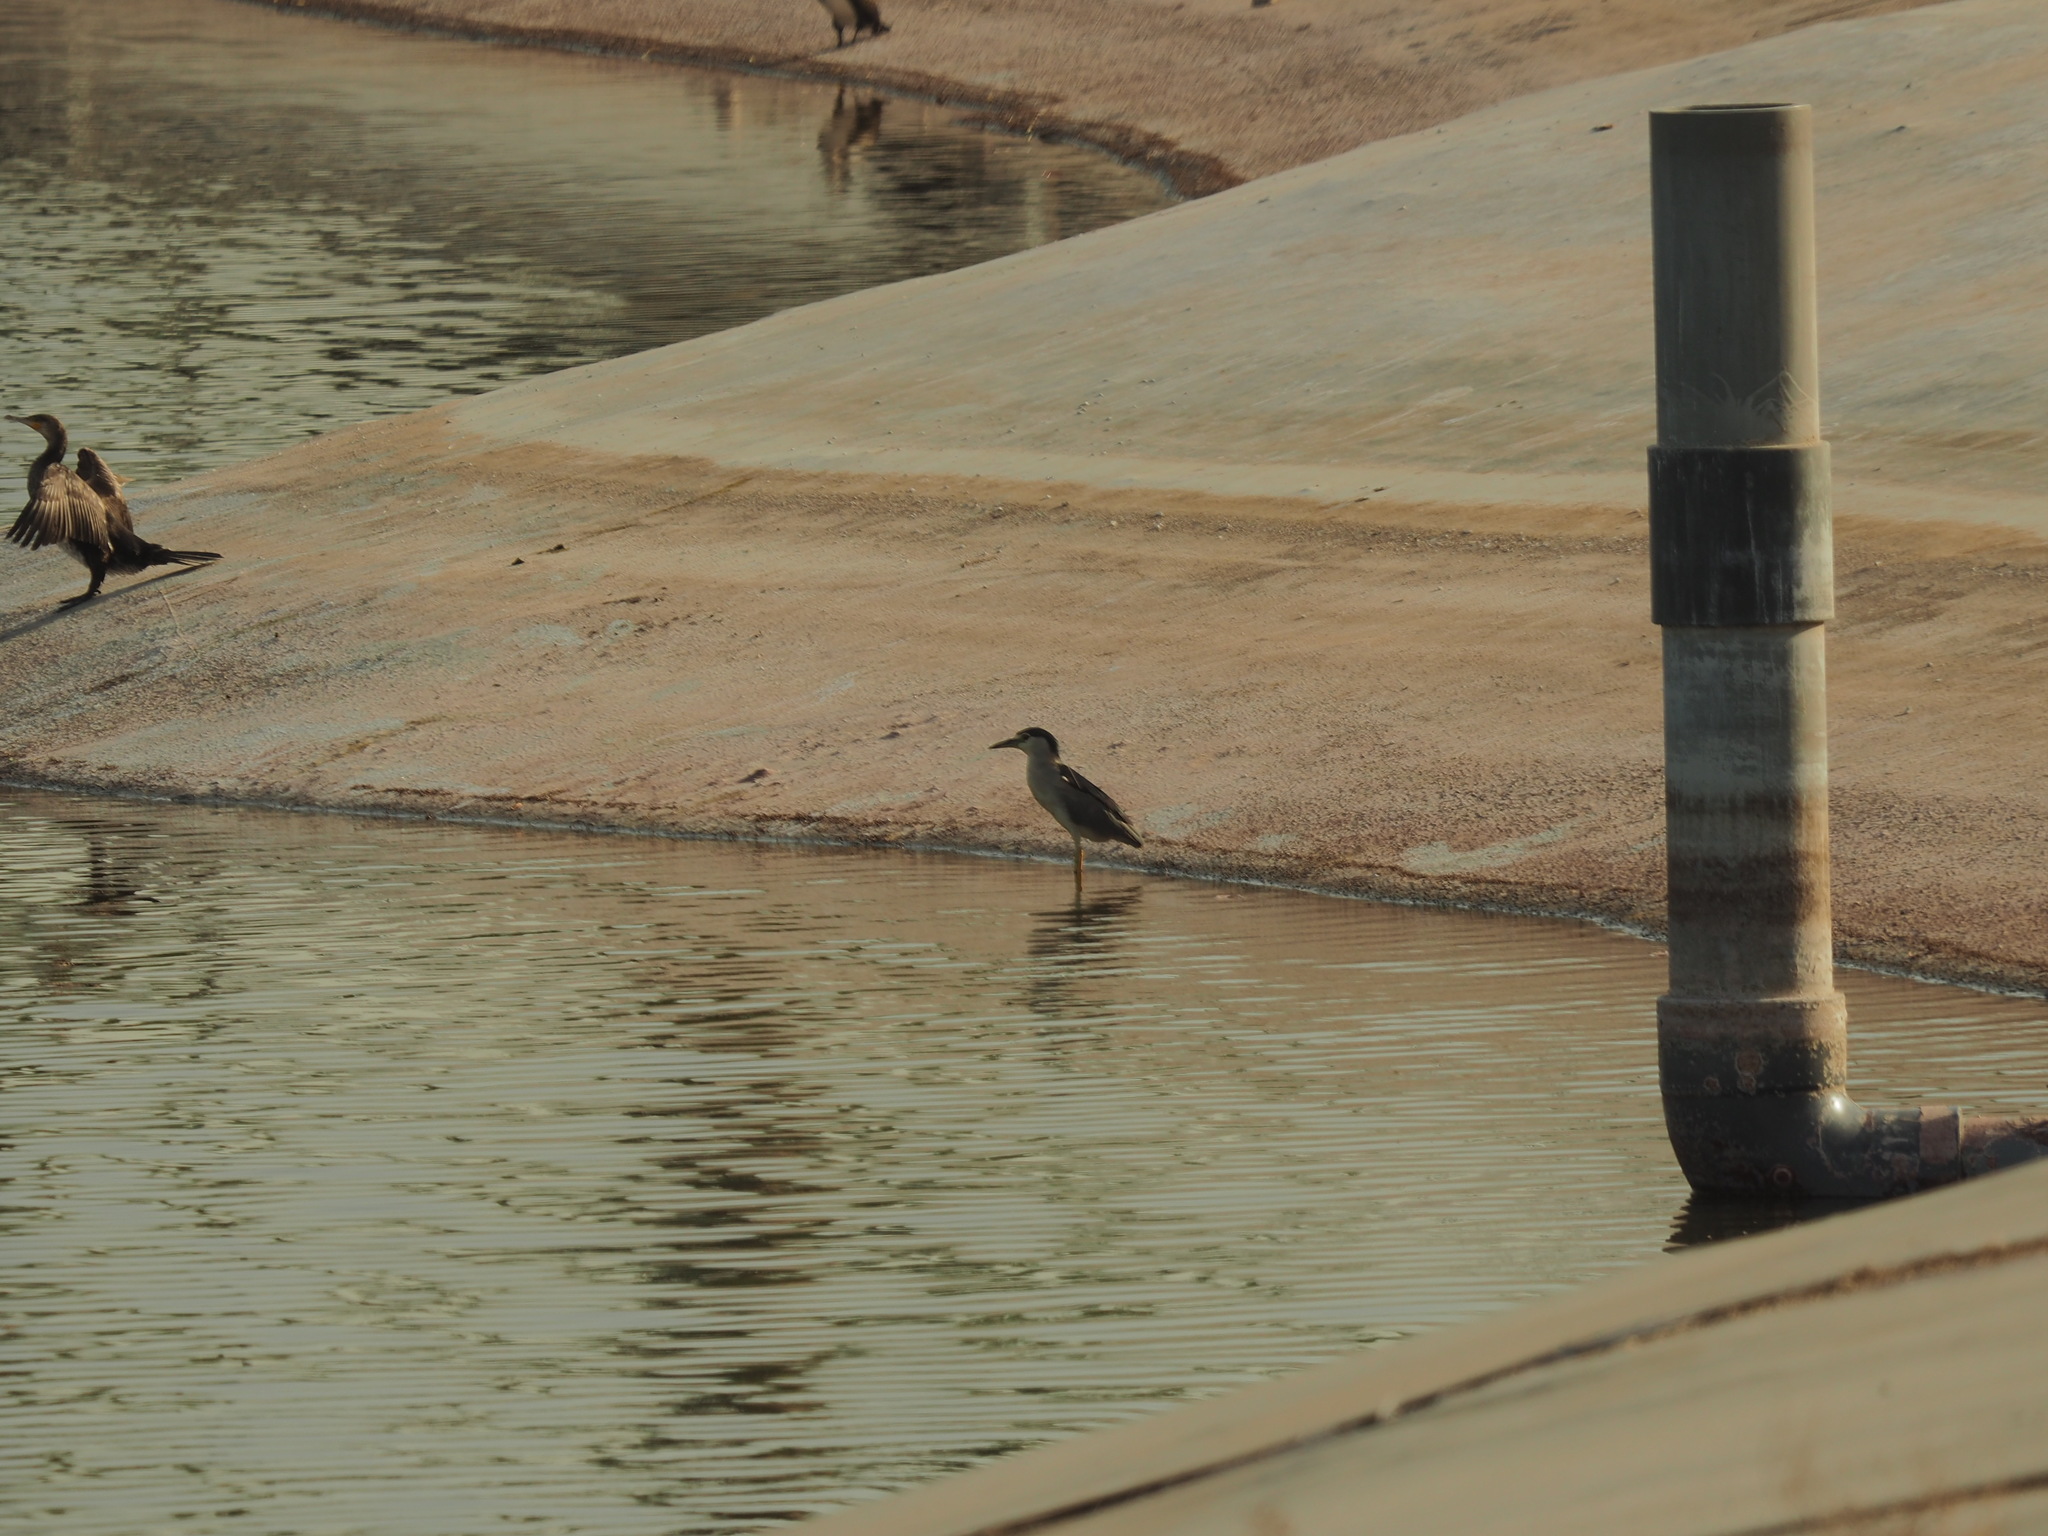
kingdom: Animalia
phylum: Chordata
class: Aves
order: Pelecaniformes
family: Ardeidae
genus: Nycticorax
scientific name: Nycticorax nycticorax
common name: Black-crowned night heron
